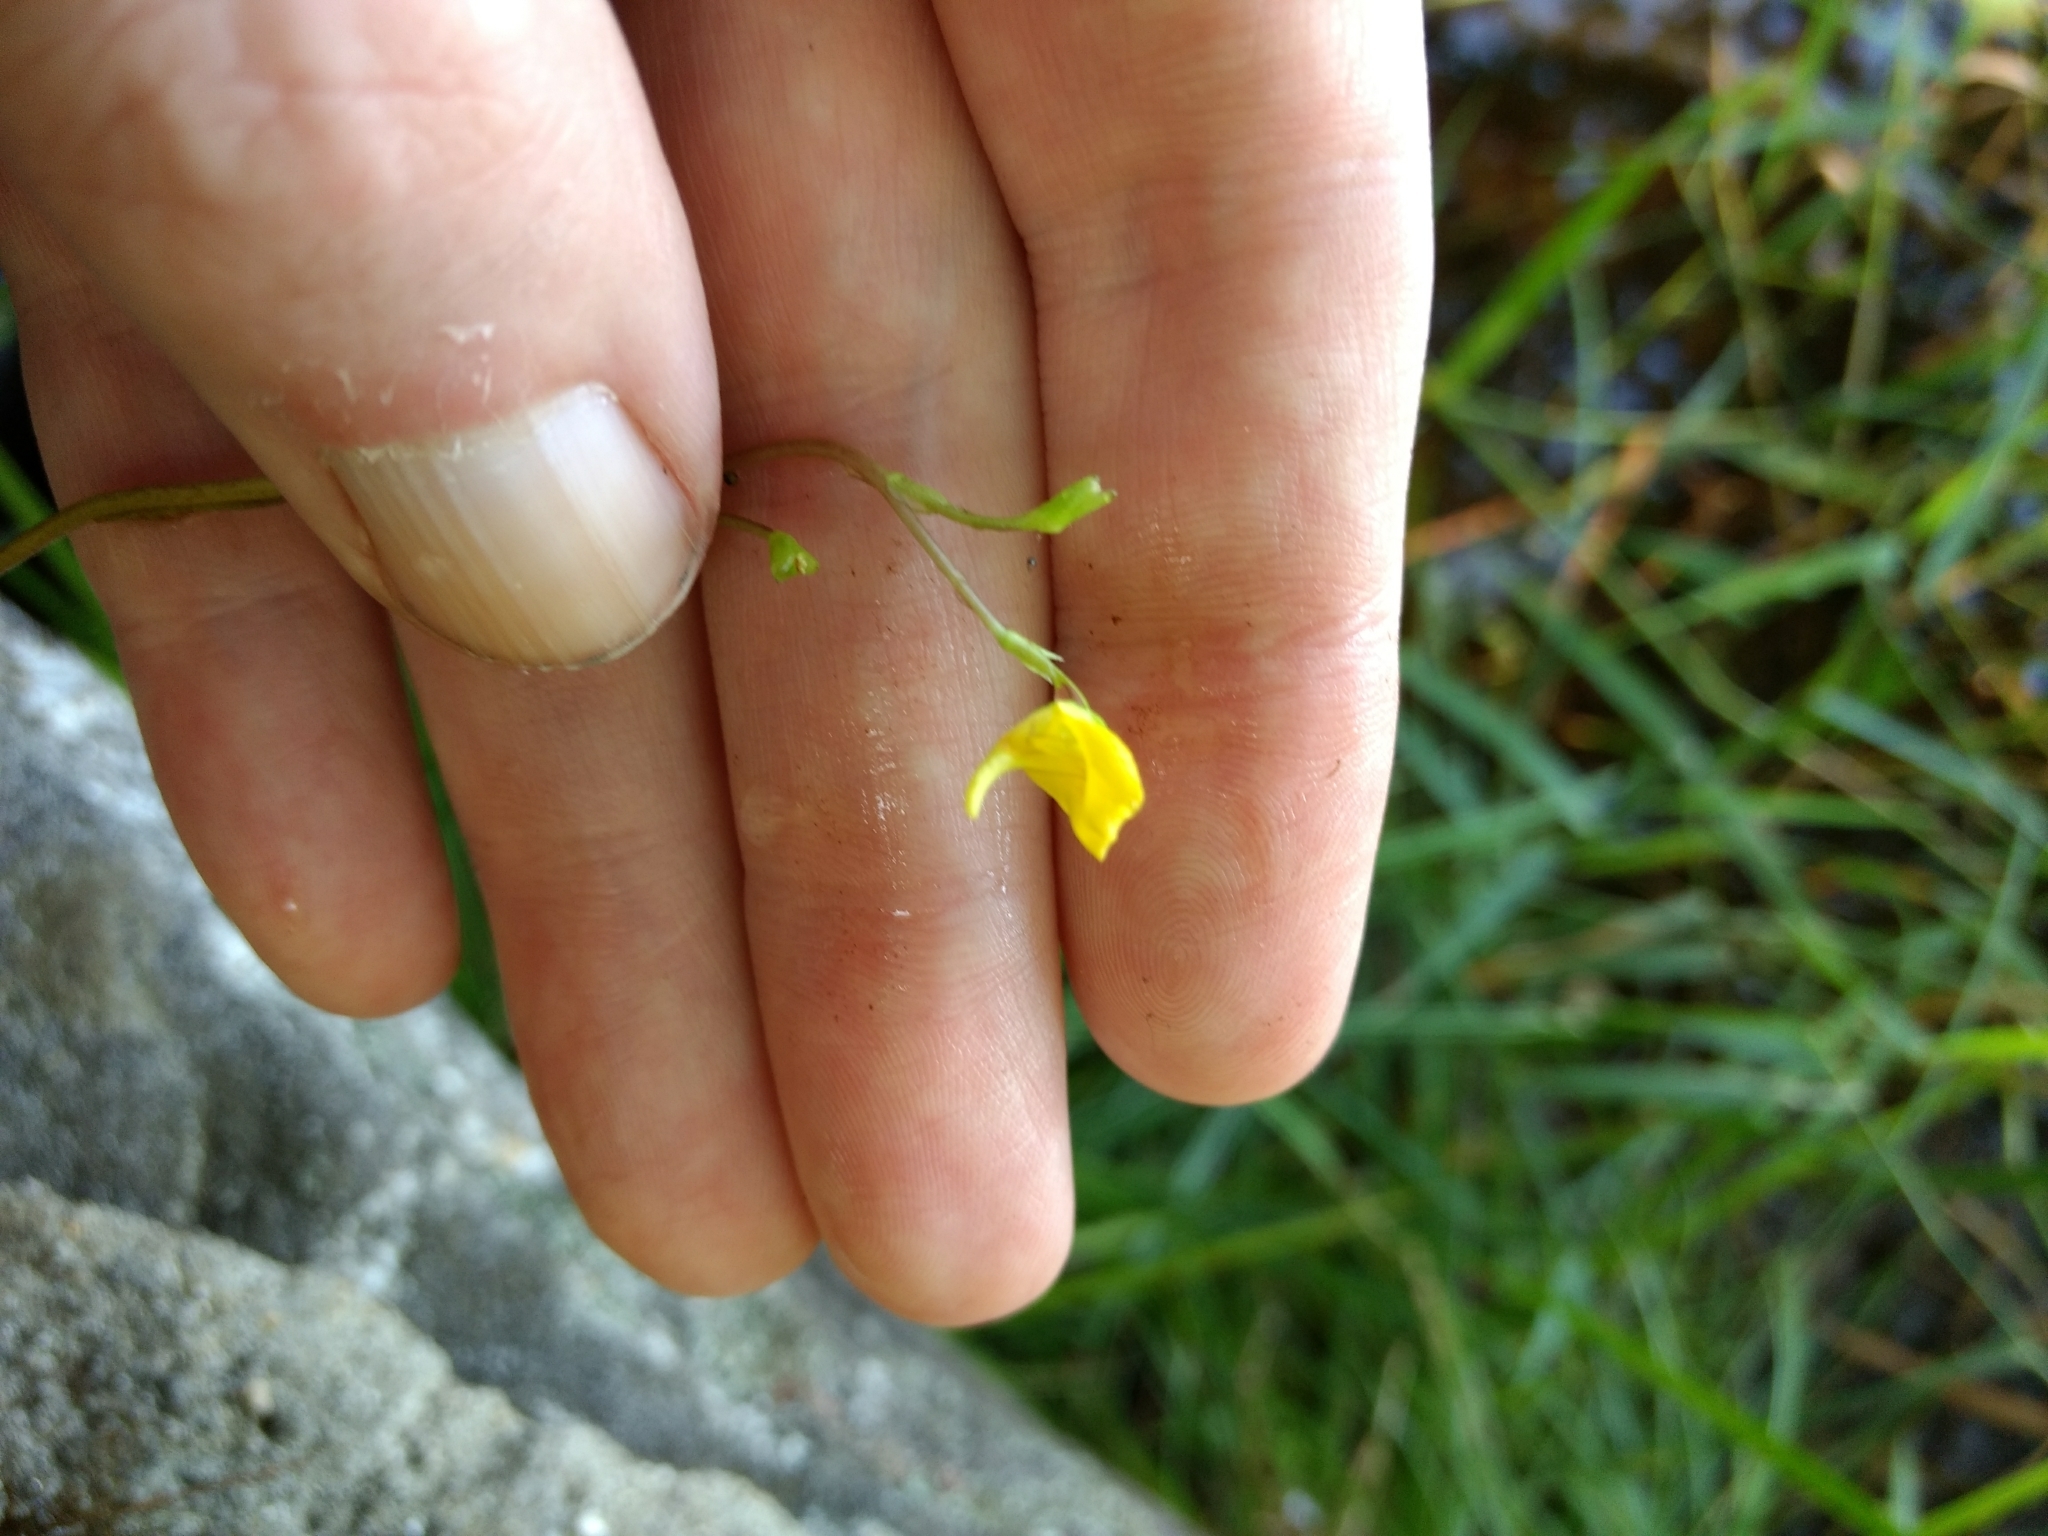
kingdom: Plantae
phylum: Tracheophyta
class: Magnoliopsida
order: Lamiales
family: Lentibulariaceae
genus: Utricularia
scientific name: Utricularia macrorhiza
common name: Common bladderwort
